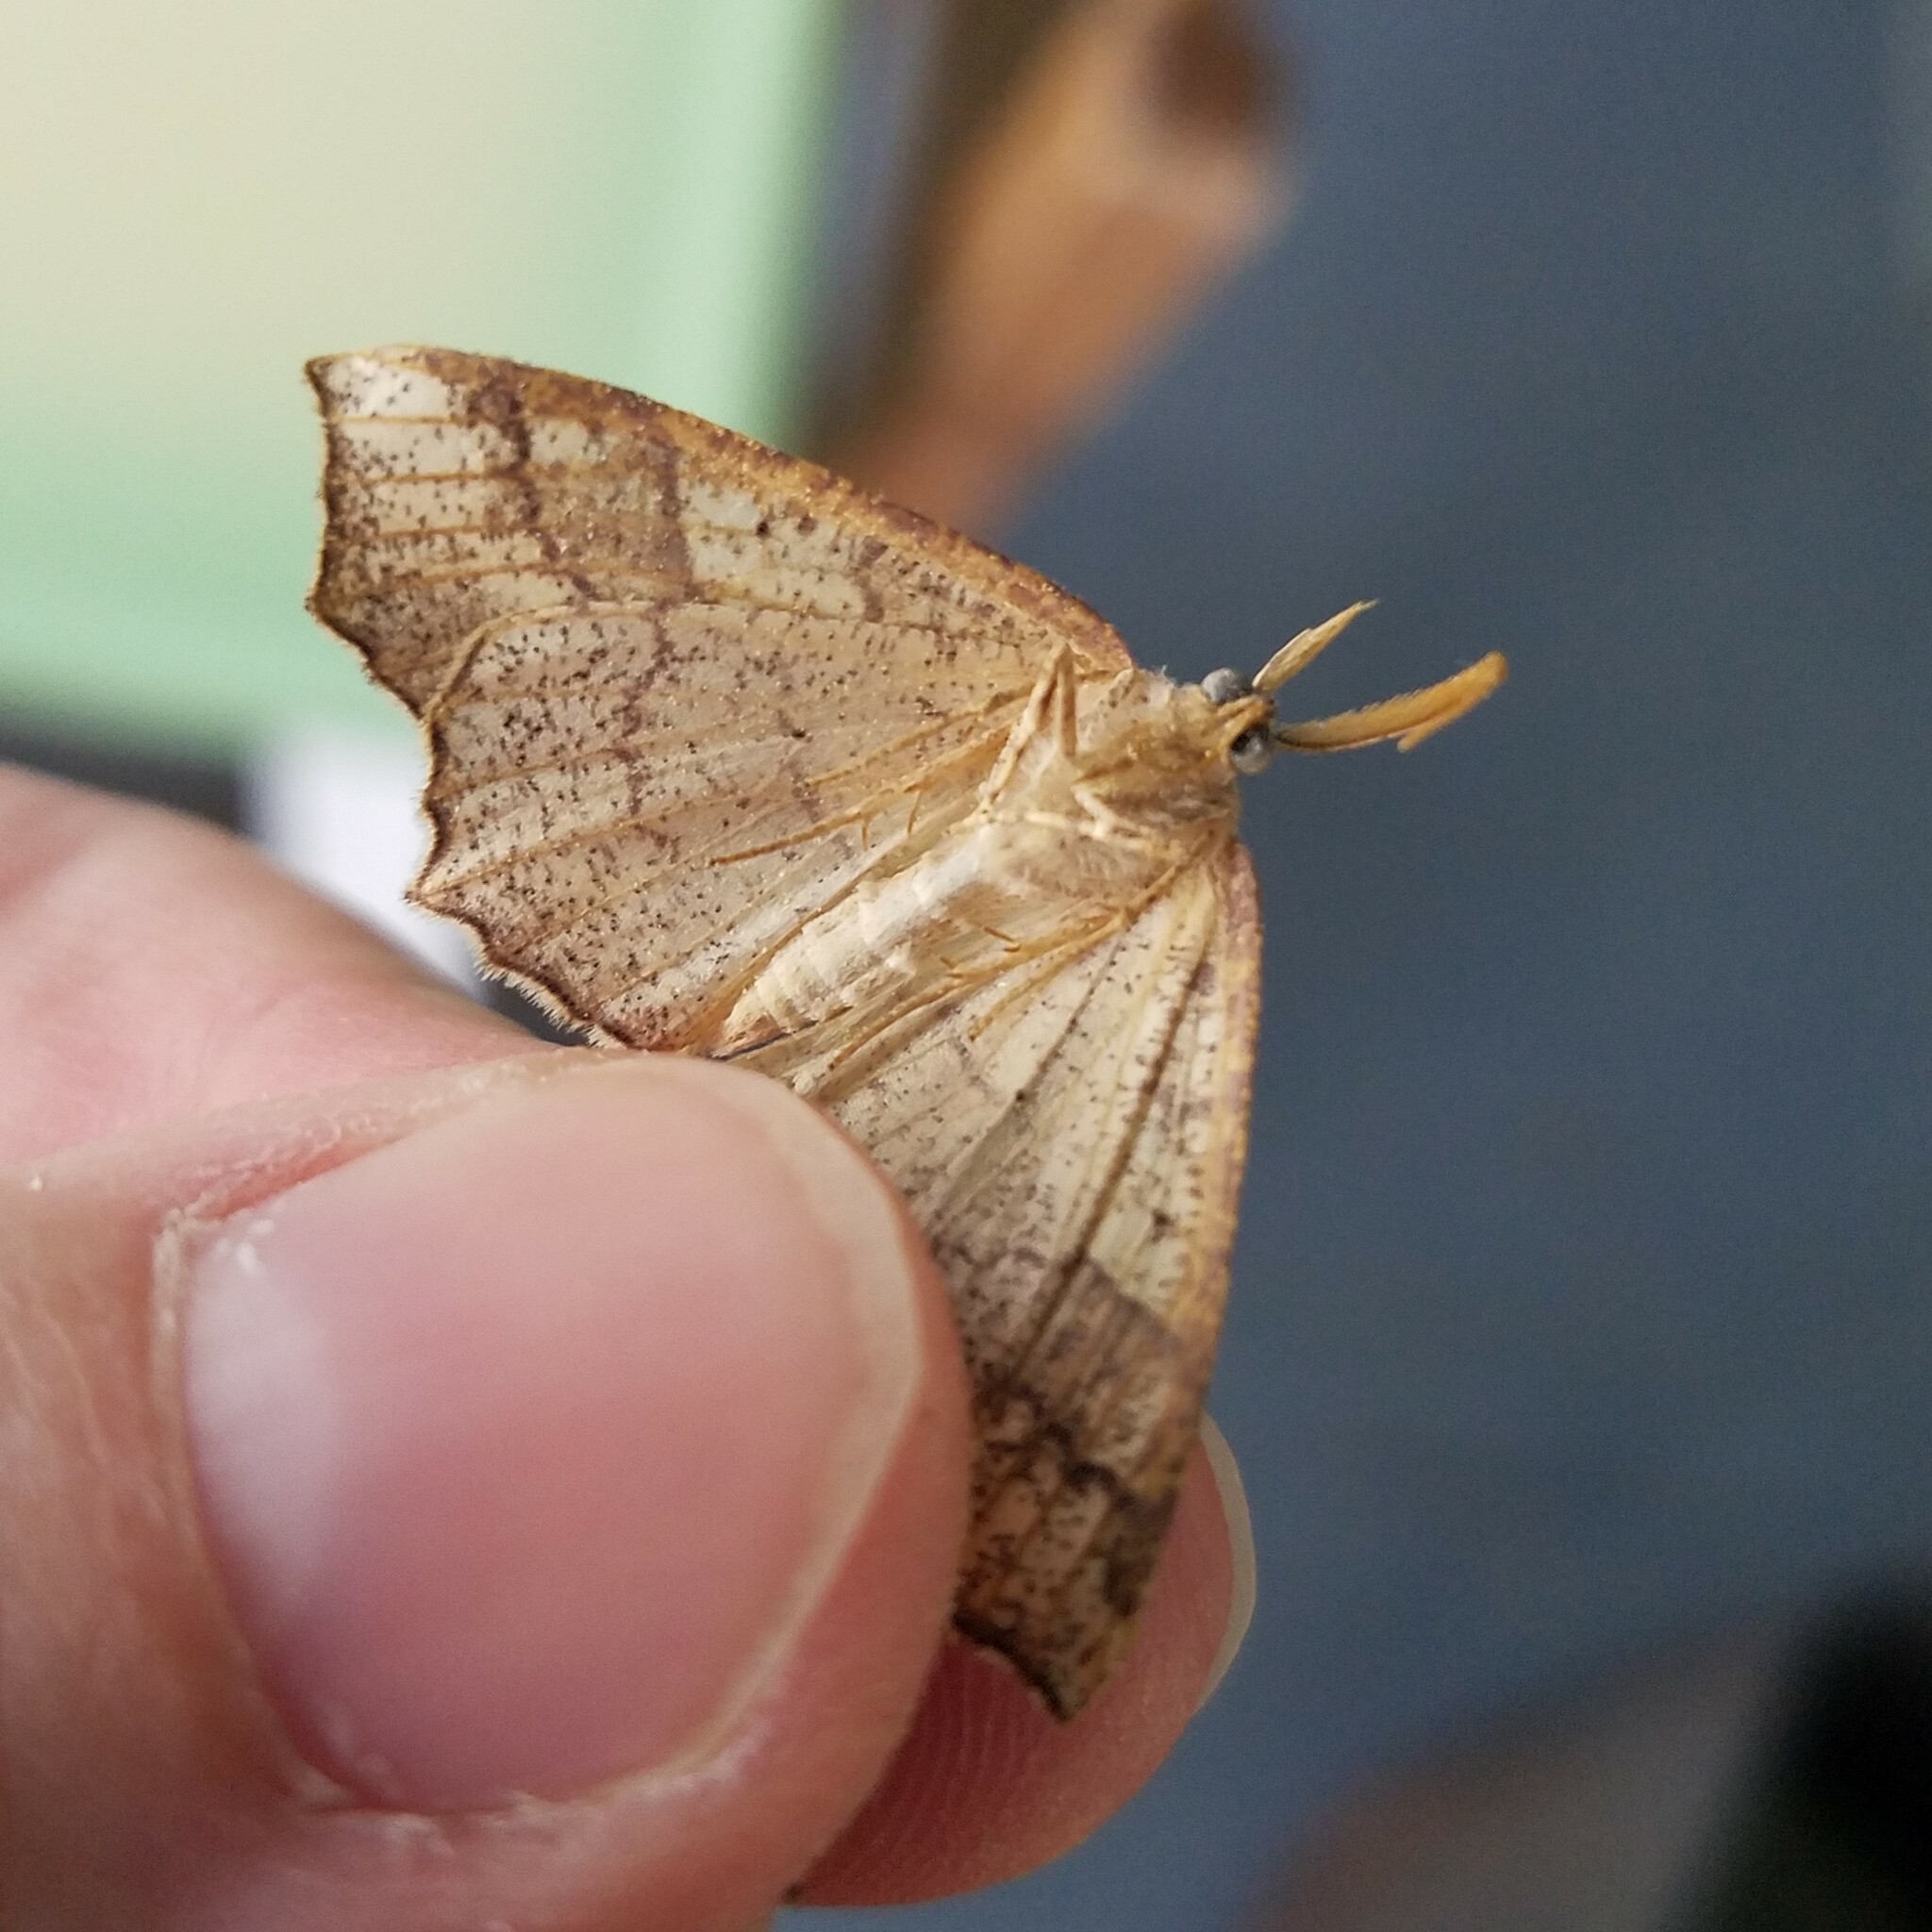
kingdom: Animalia
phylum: Arthropoda
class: Insecta
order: Lepidoptera
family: Geometridae
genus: Besma
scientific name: Besma quercivoraria
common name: Oak besma
